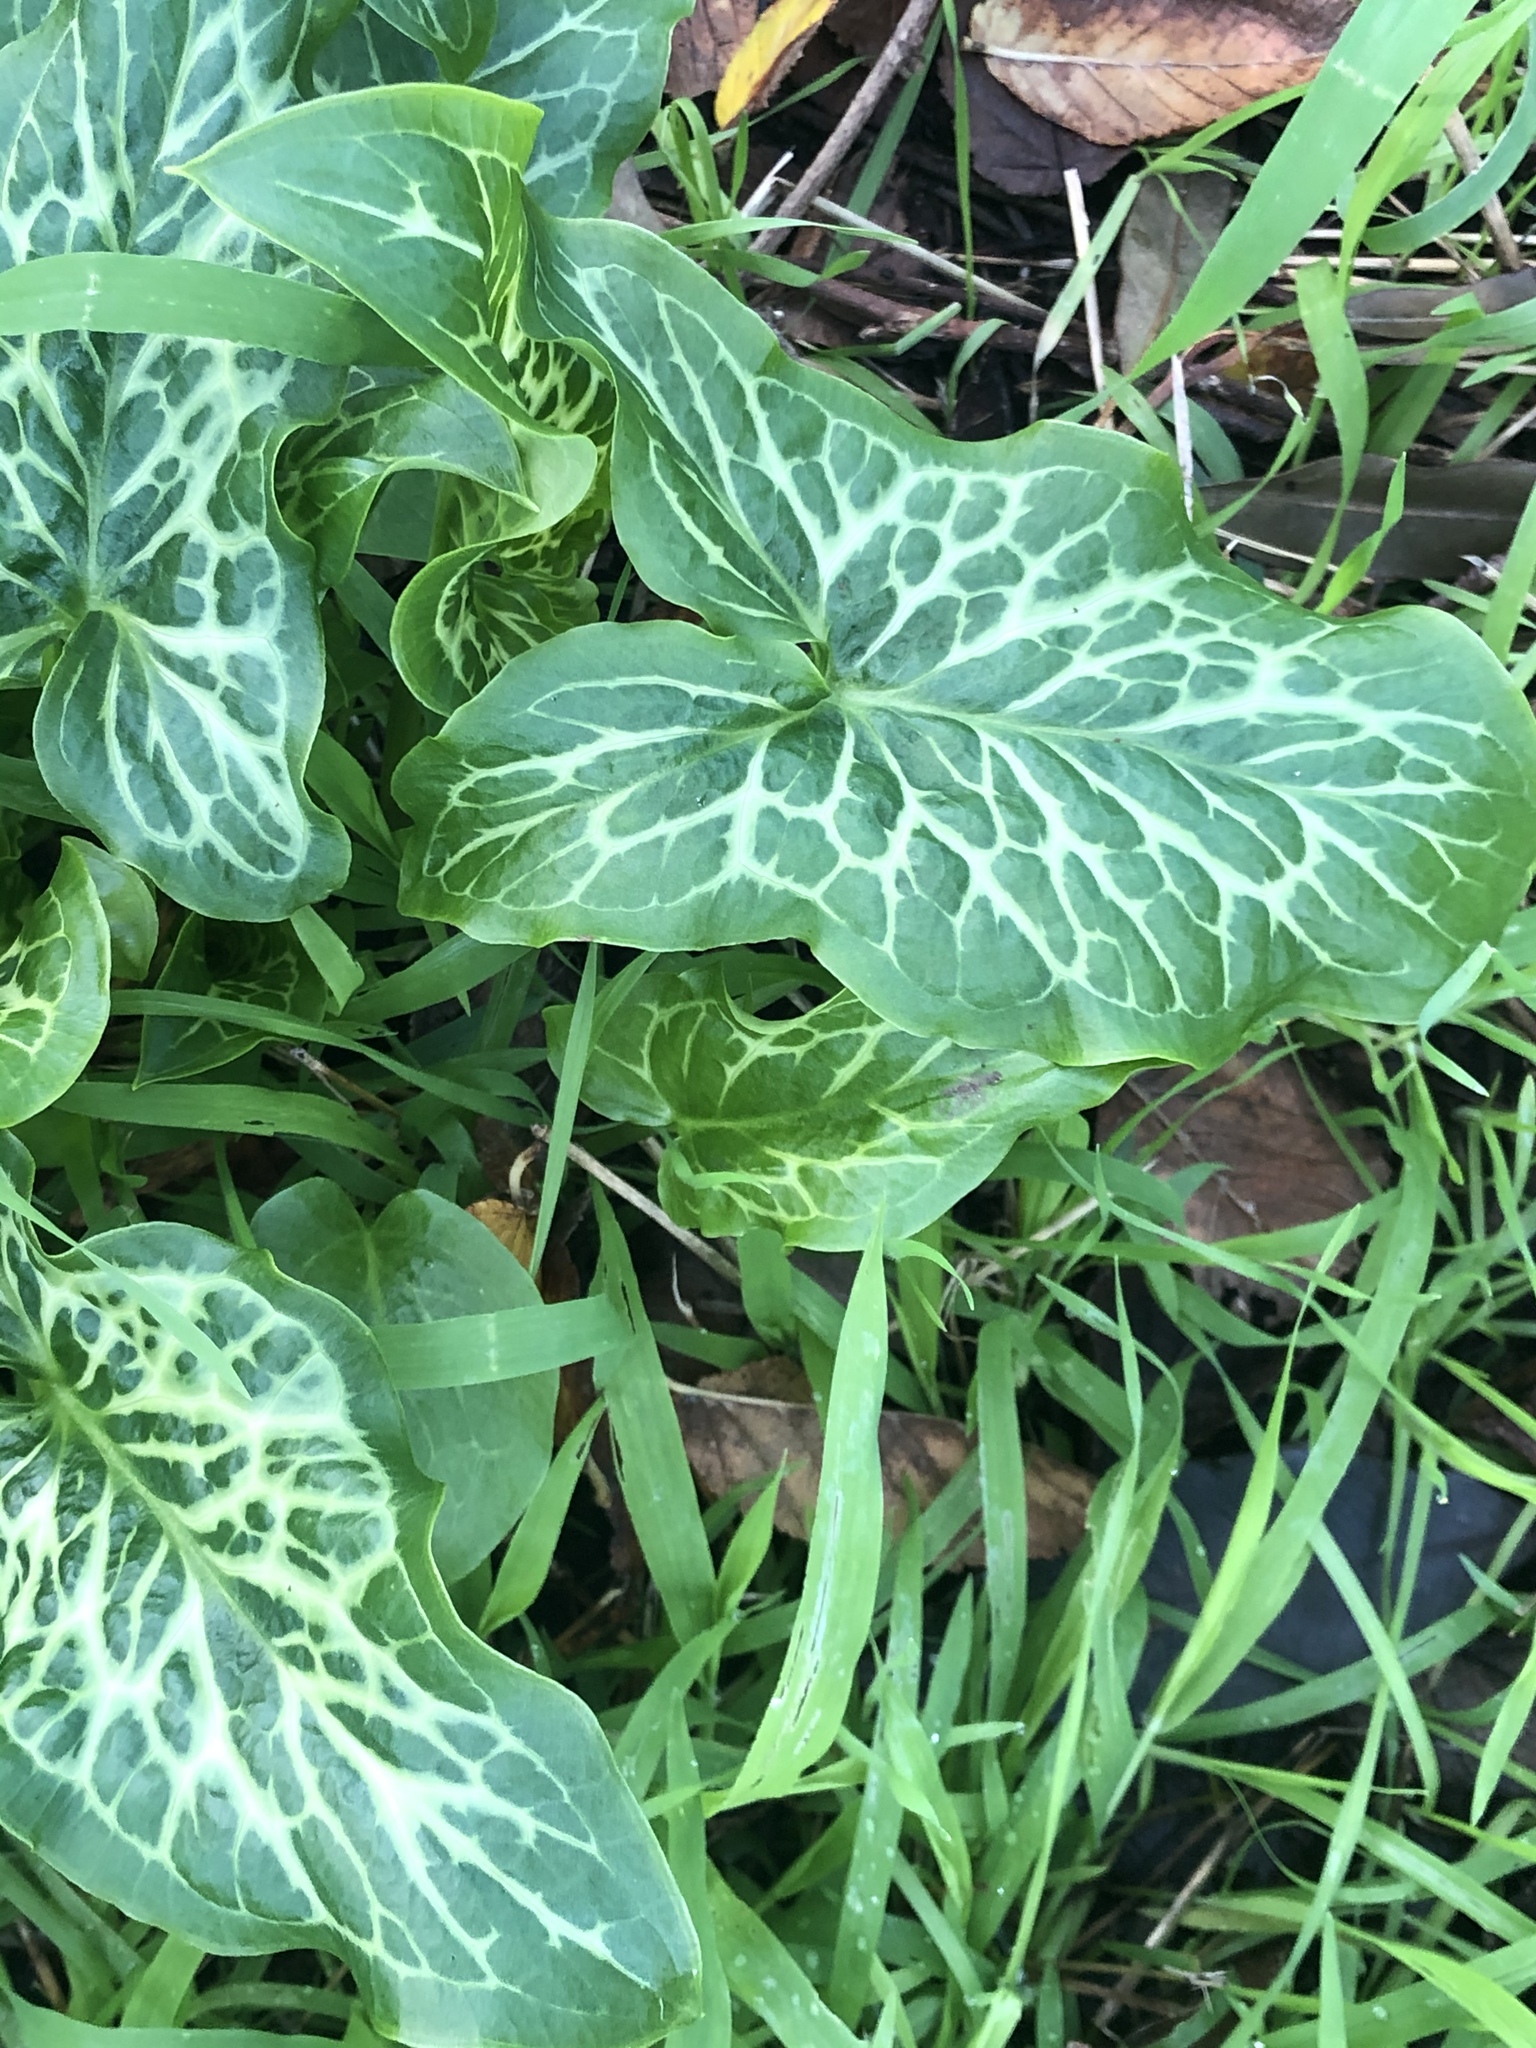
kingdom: Plantae
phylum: Tracheophyta
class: Liliopsida
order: Alismatales
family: Araceae
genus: Arum
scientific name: Arum italicum
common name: Italian lords-and-ladies
